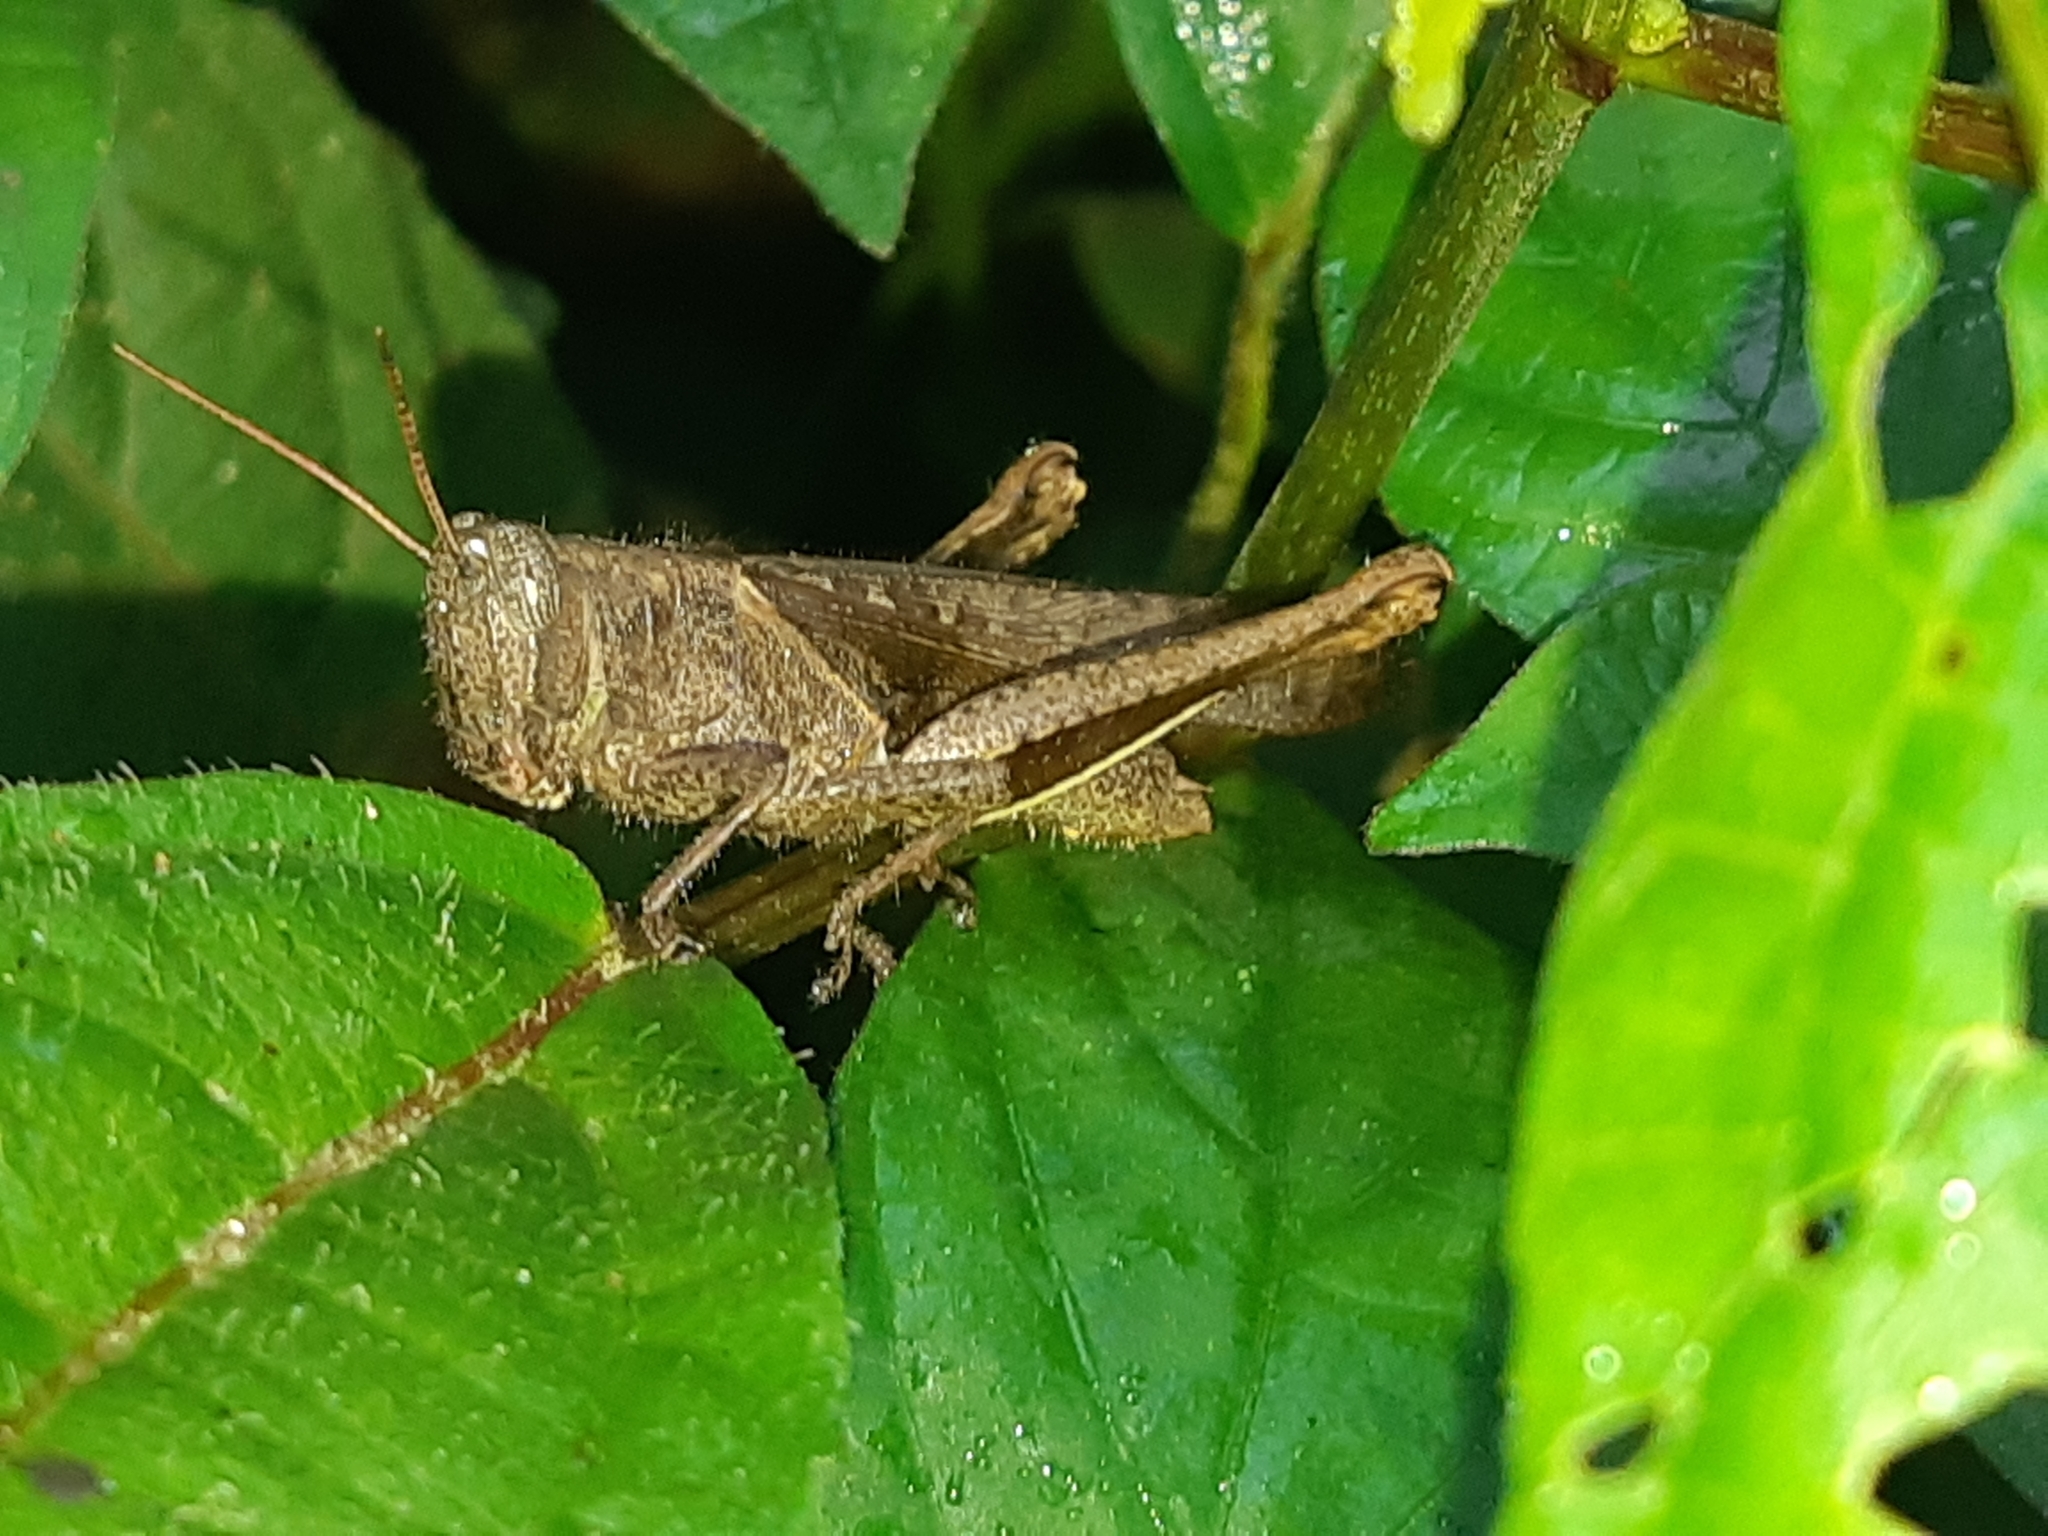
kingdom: Animalia
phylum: Arthropoda
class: Insecta
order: Orthoptera
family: Acrididae
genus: Abracris
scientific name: Abracris flavolineata
